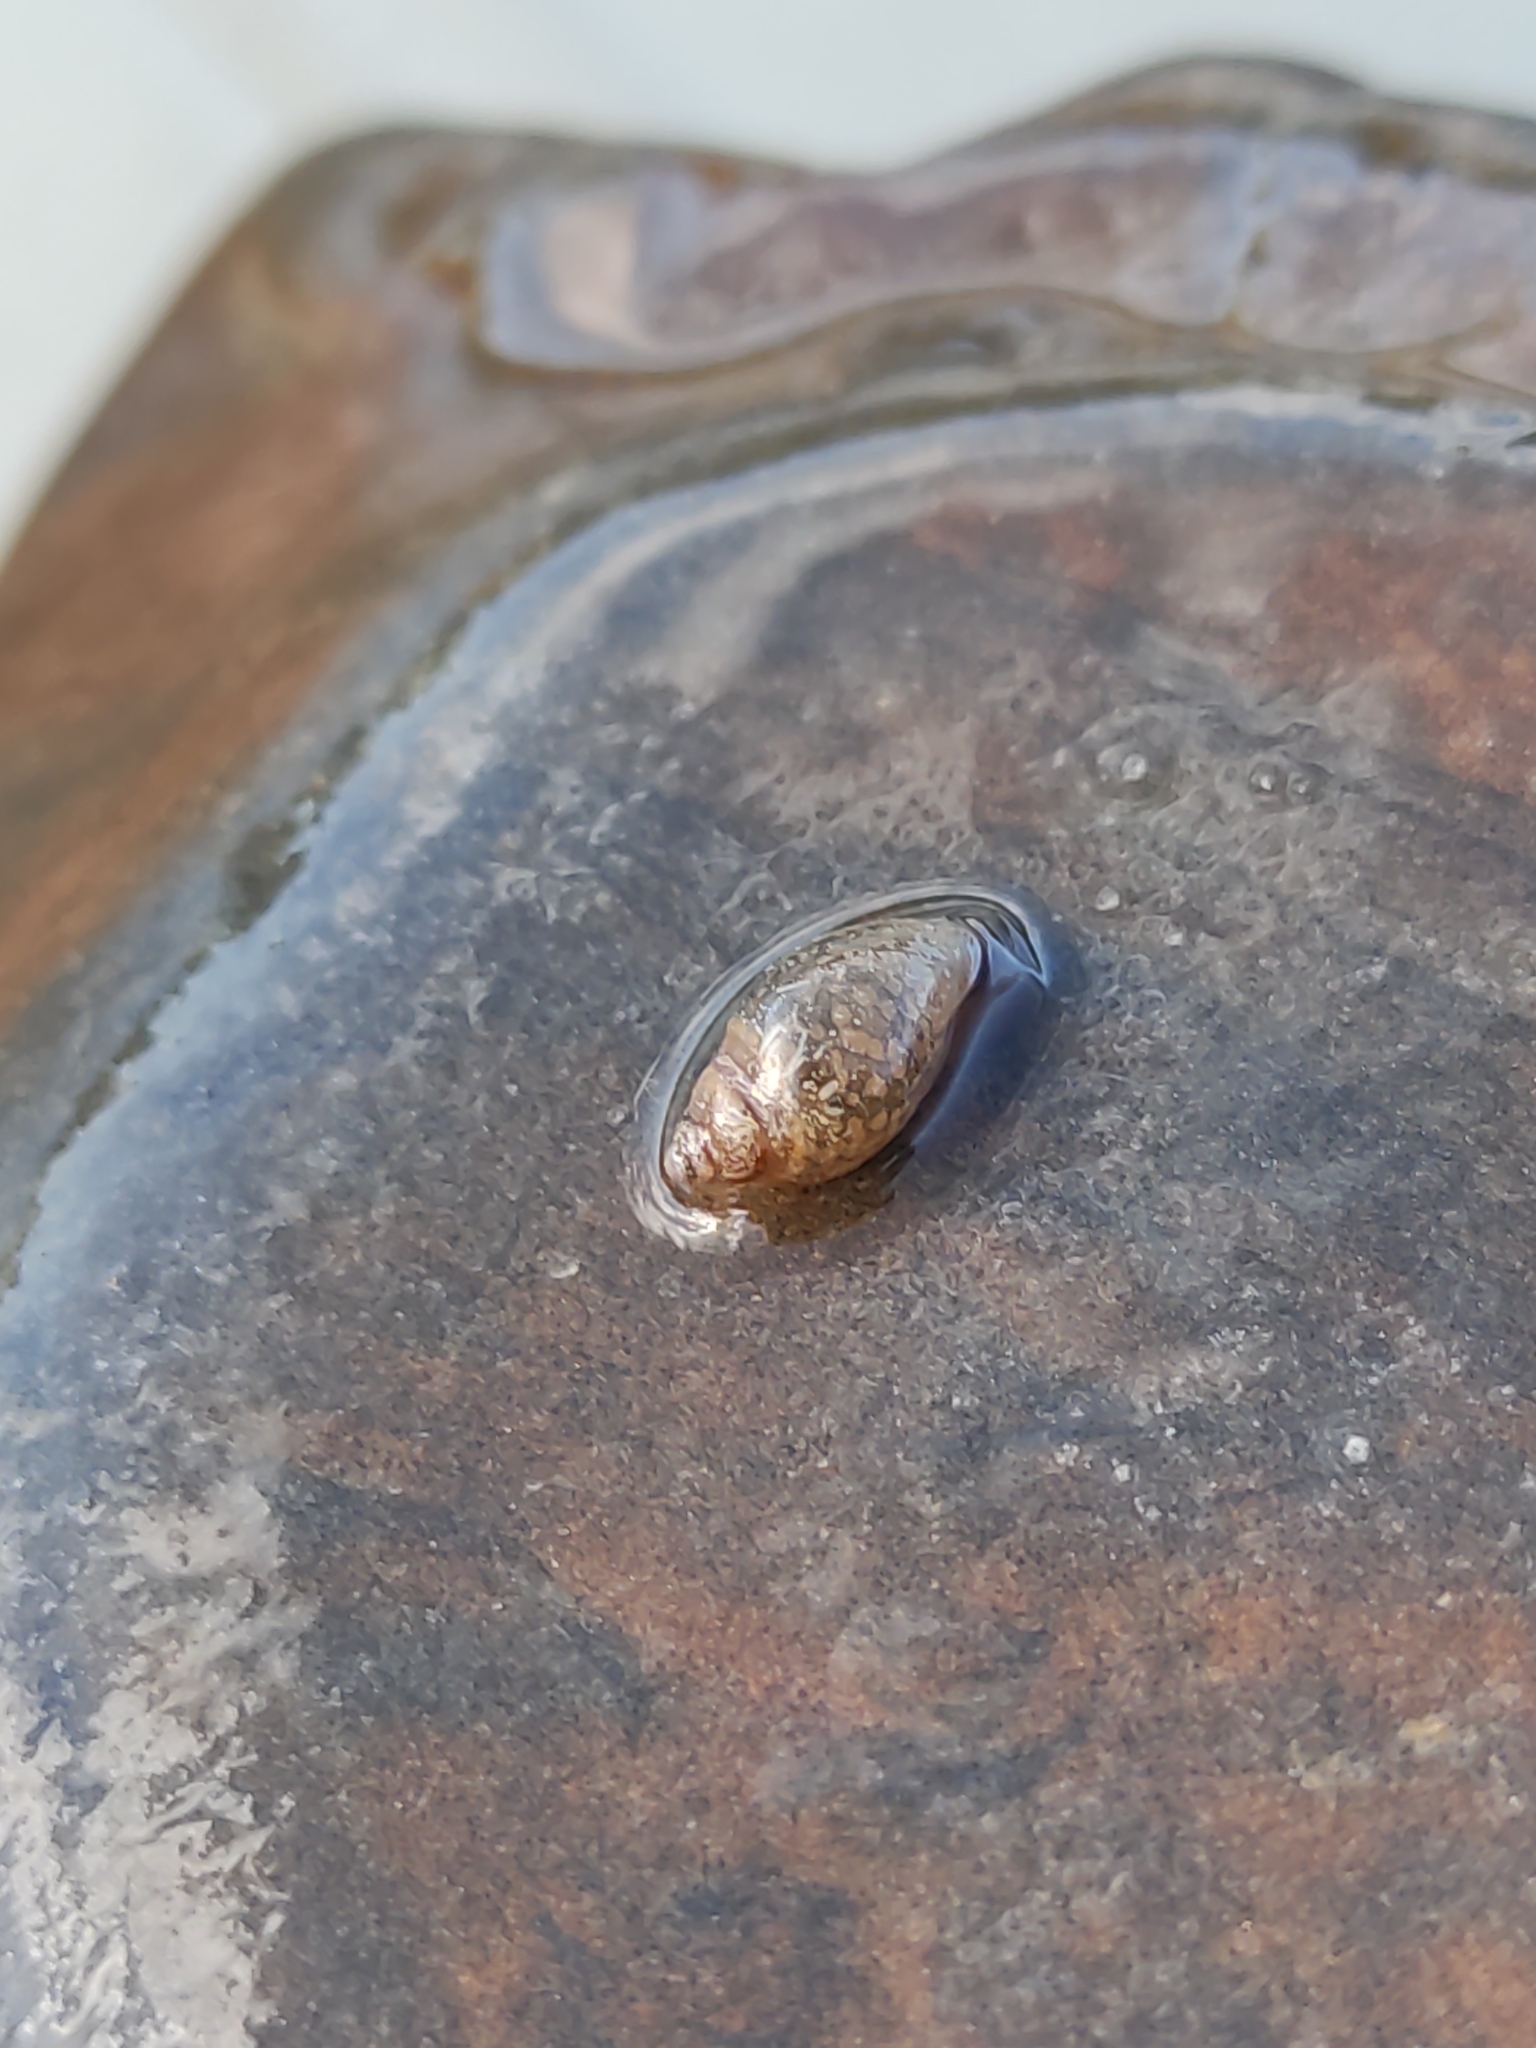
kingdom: Animalia
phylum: Mollusca
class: Gastropoda
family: Physidae
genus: Physella
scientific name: Physella acuta
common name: European physa
